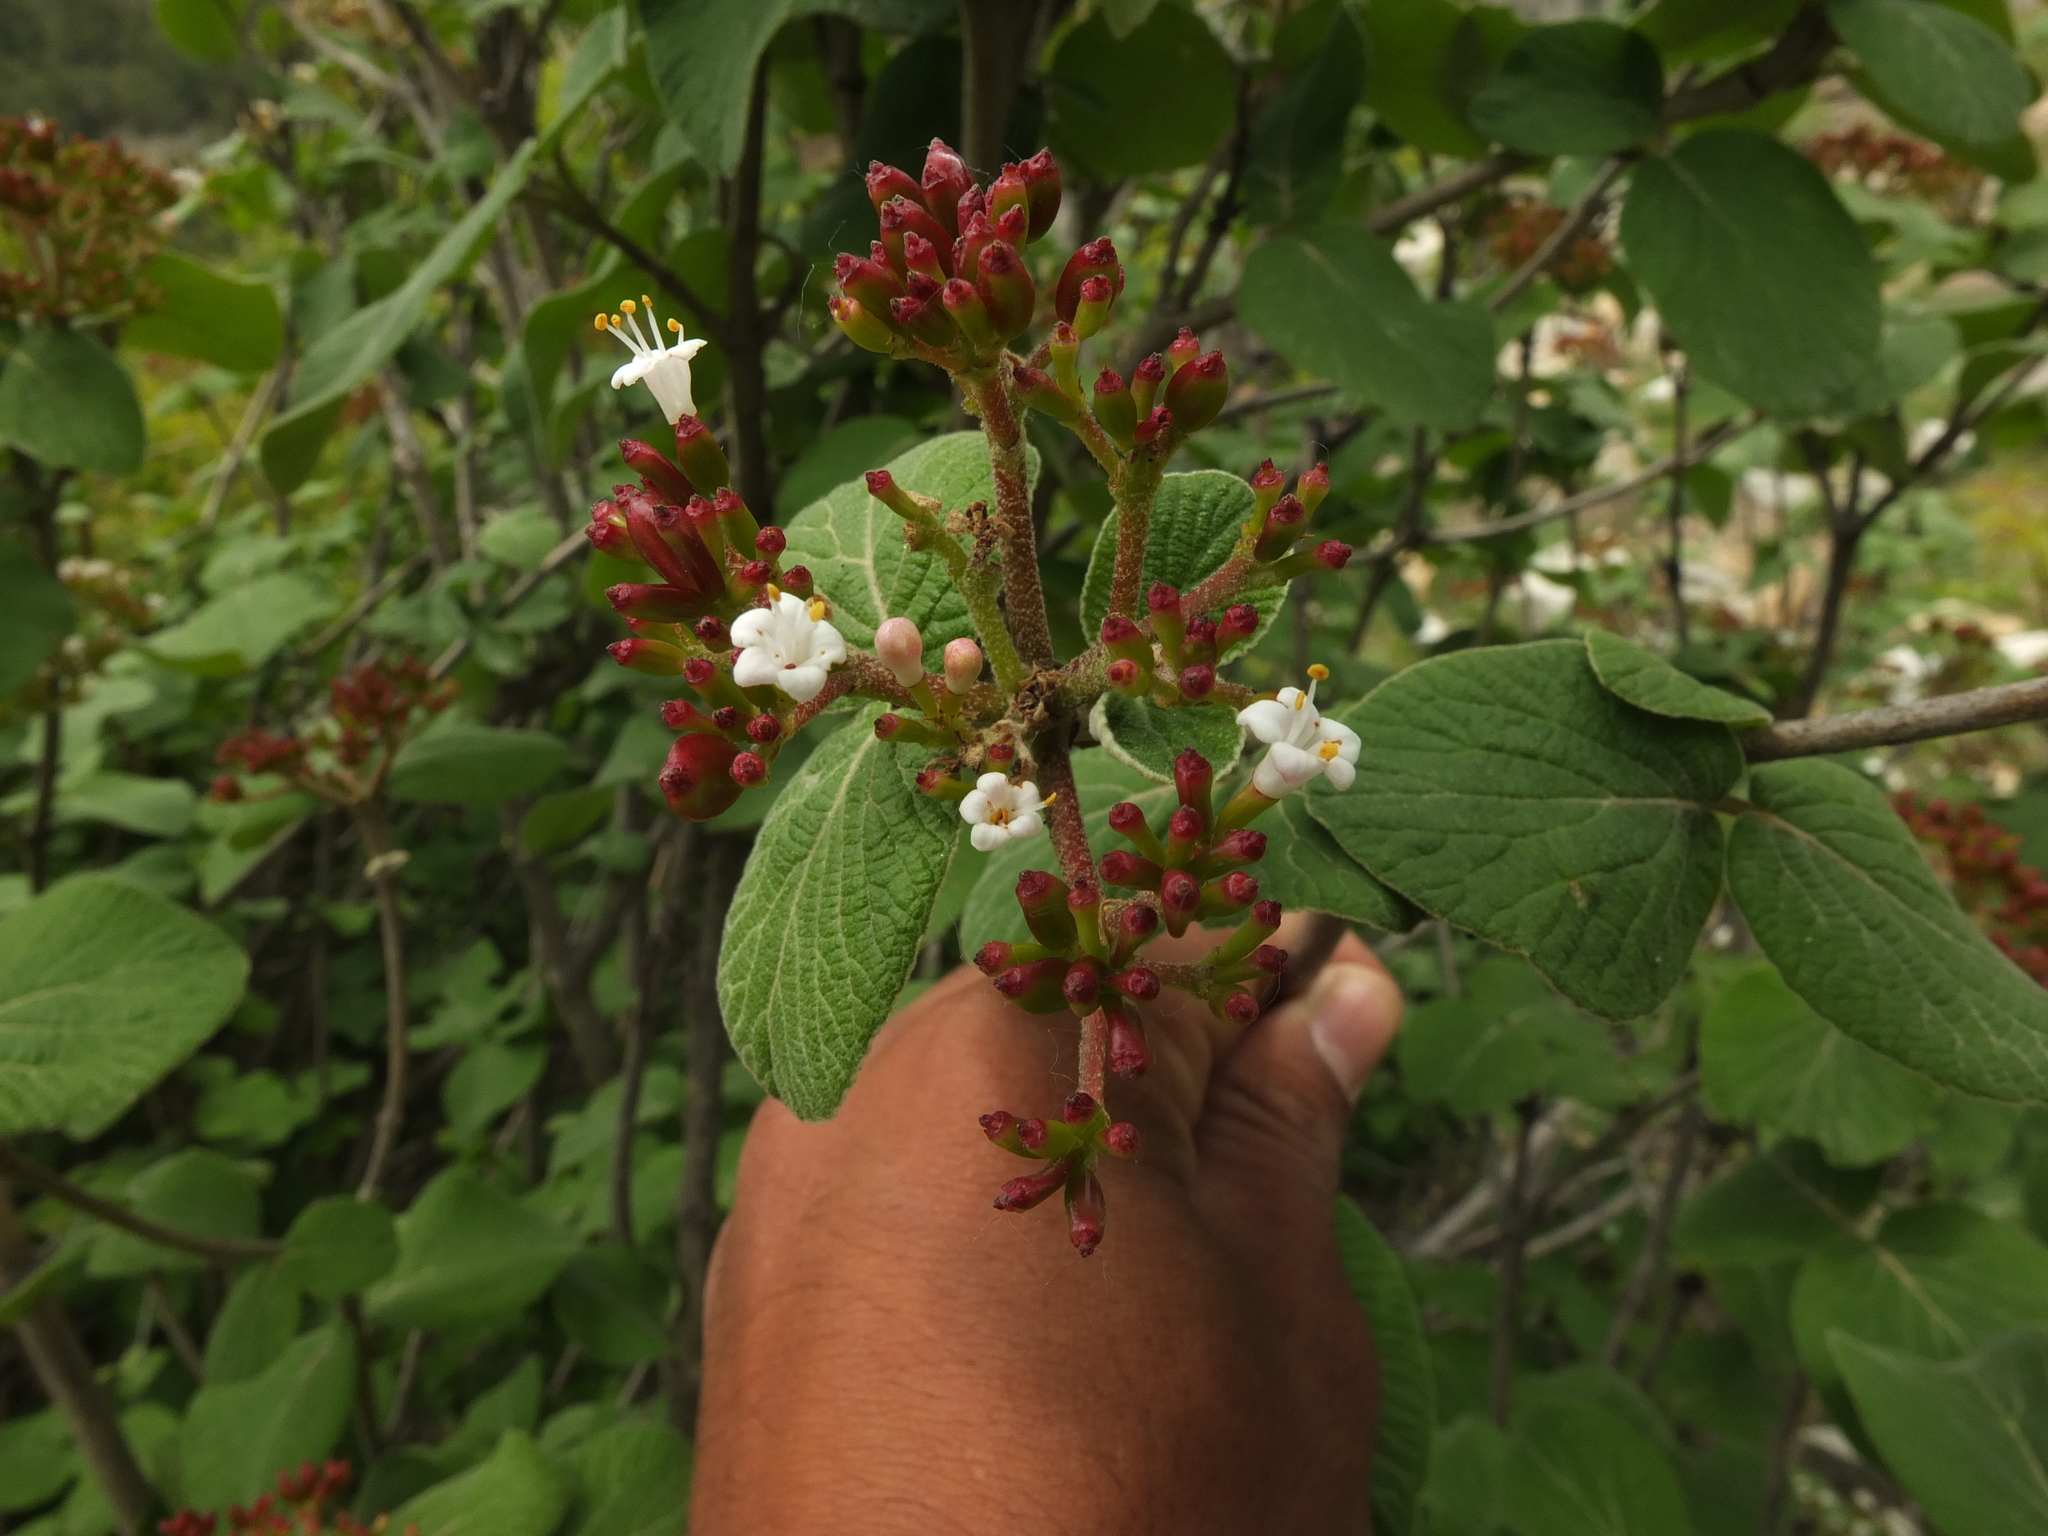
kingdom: Plantae
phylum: Tracheophyta
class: Magnoliopsida
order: Dipsacales
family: Viburnaceae
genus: Viburnum
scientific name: Viburnum cotinifolium
